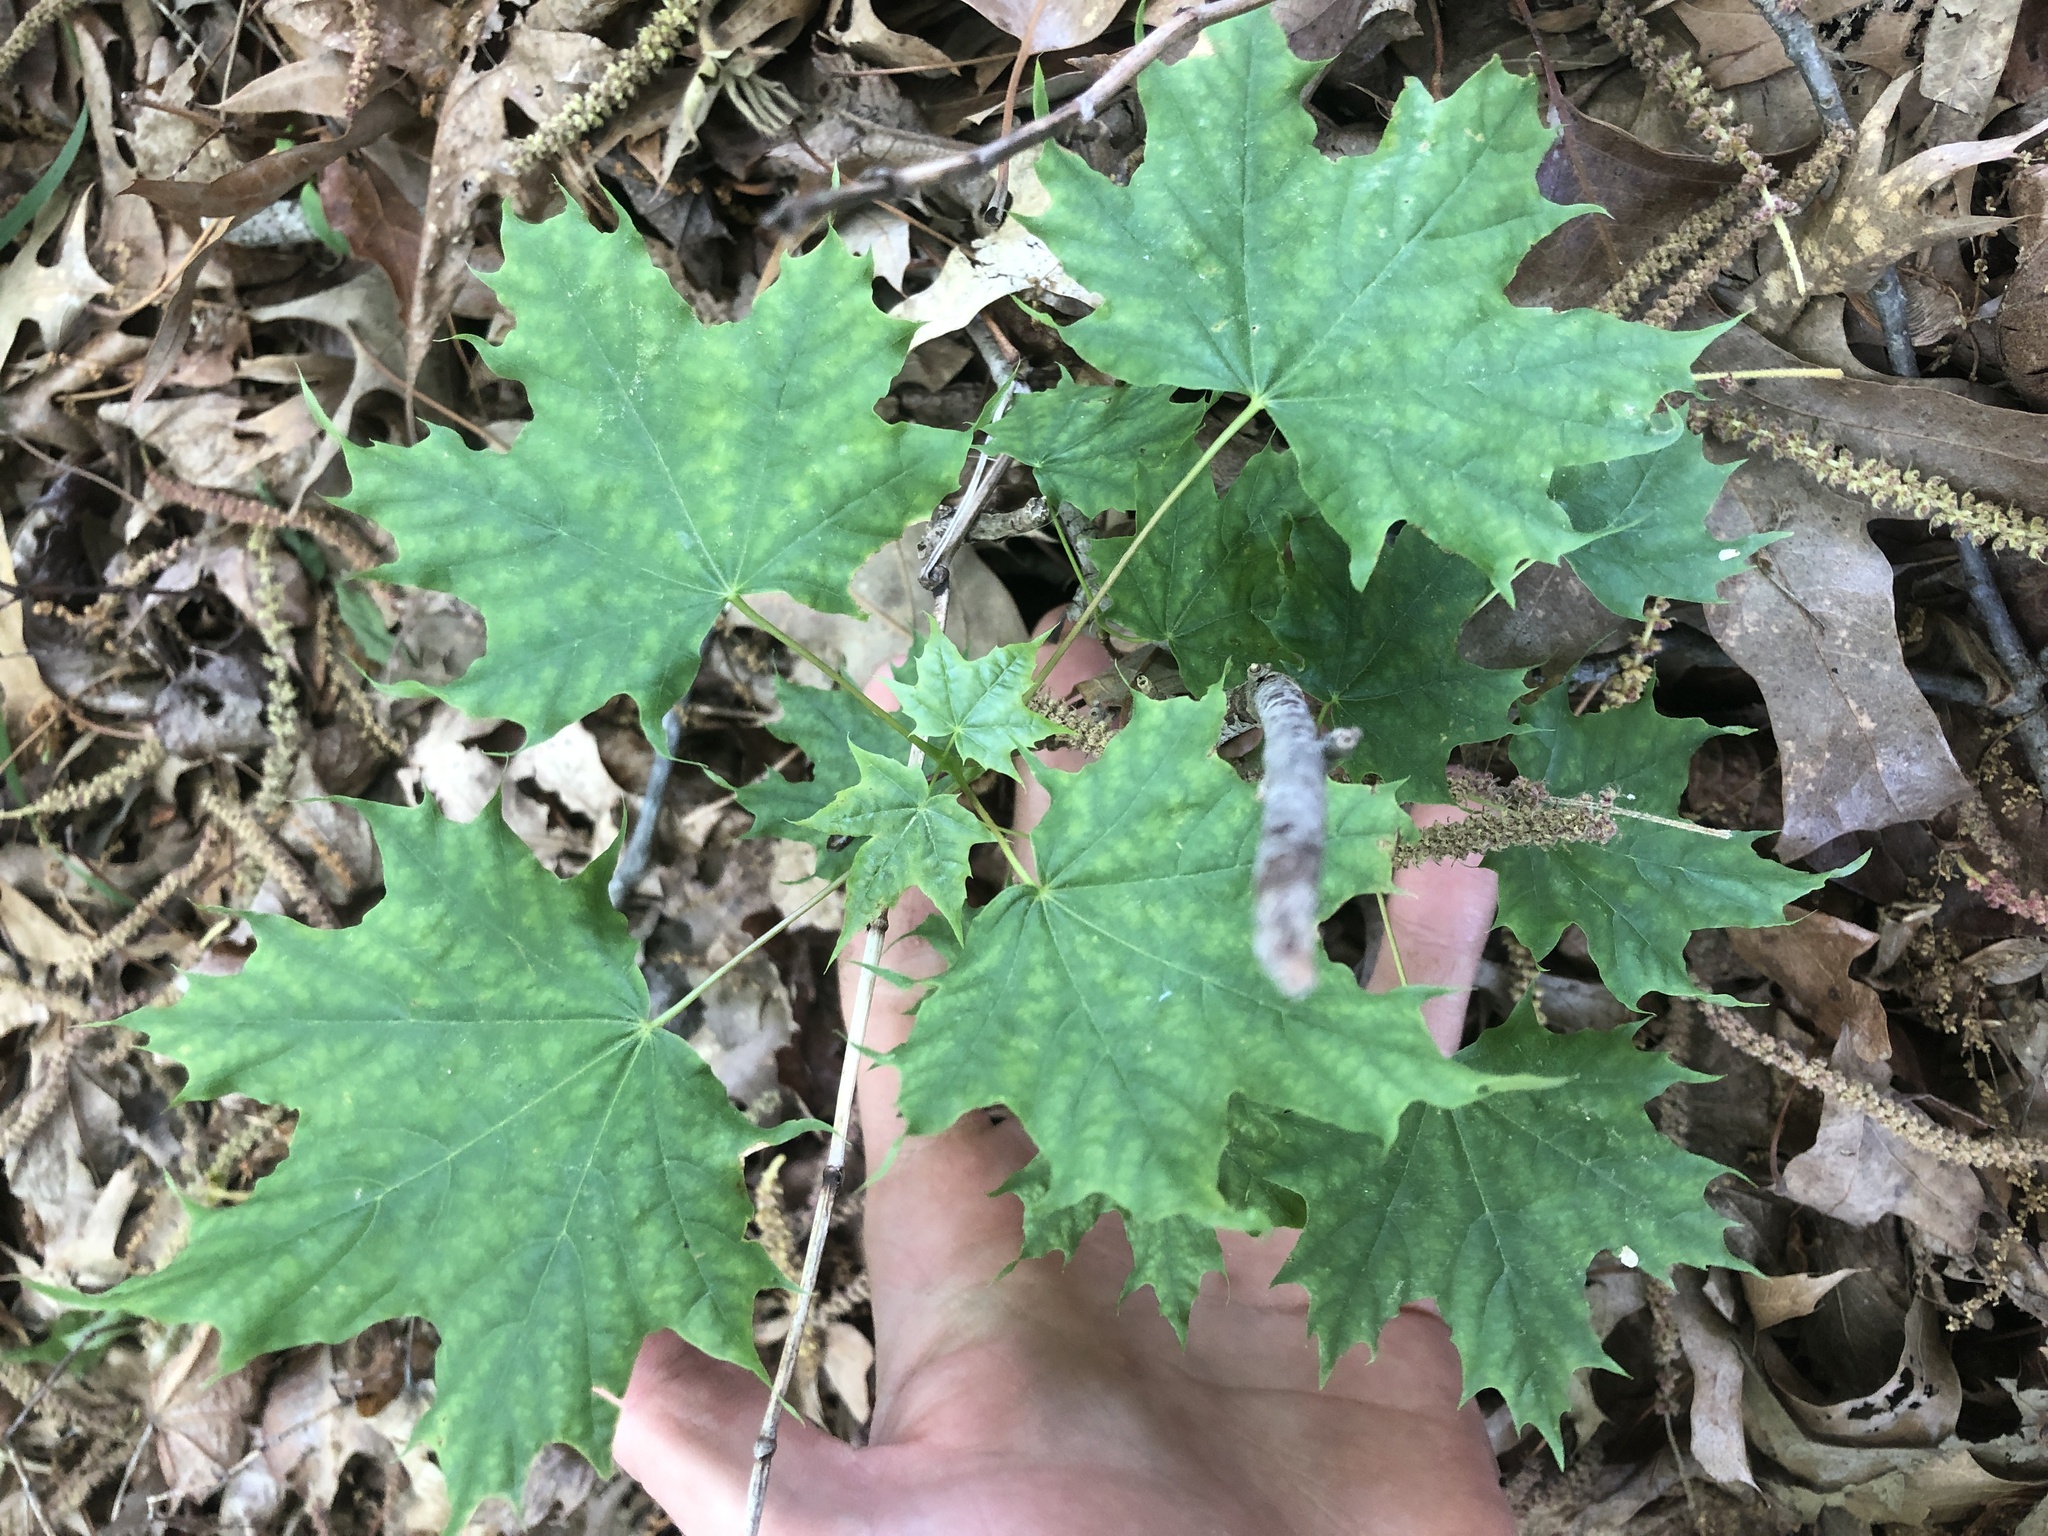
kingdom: Plantae
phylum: Tracheophyta
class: Magnoliopsida
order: Sapindales
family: Sapindaceae
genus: Acer
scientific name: Acer platanoides
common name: Norway maple
